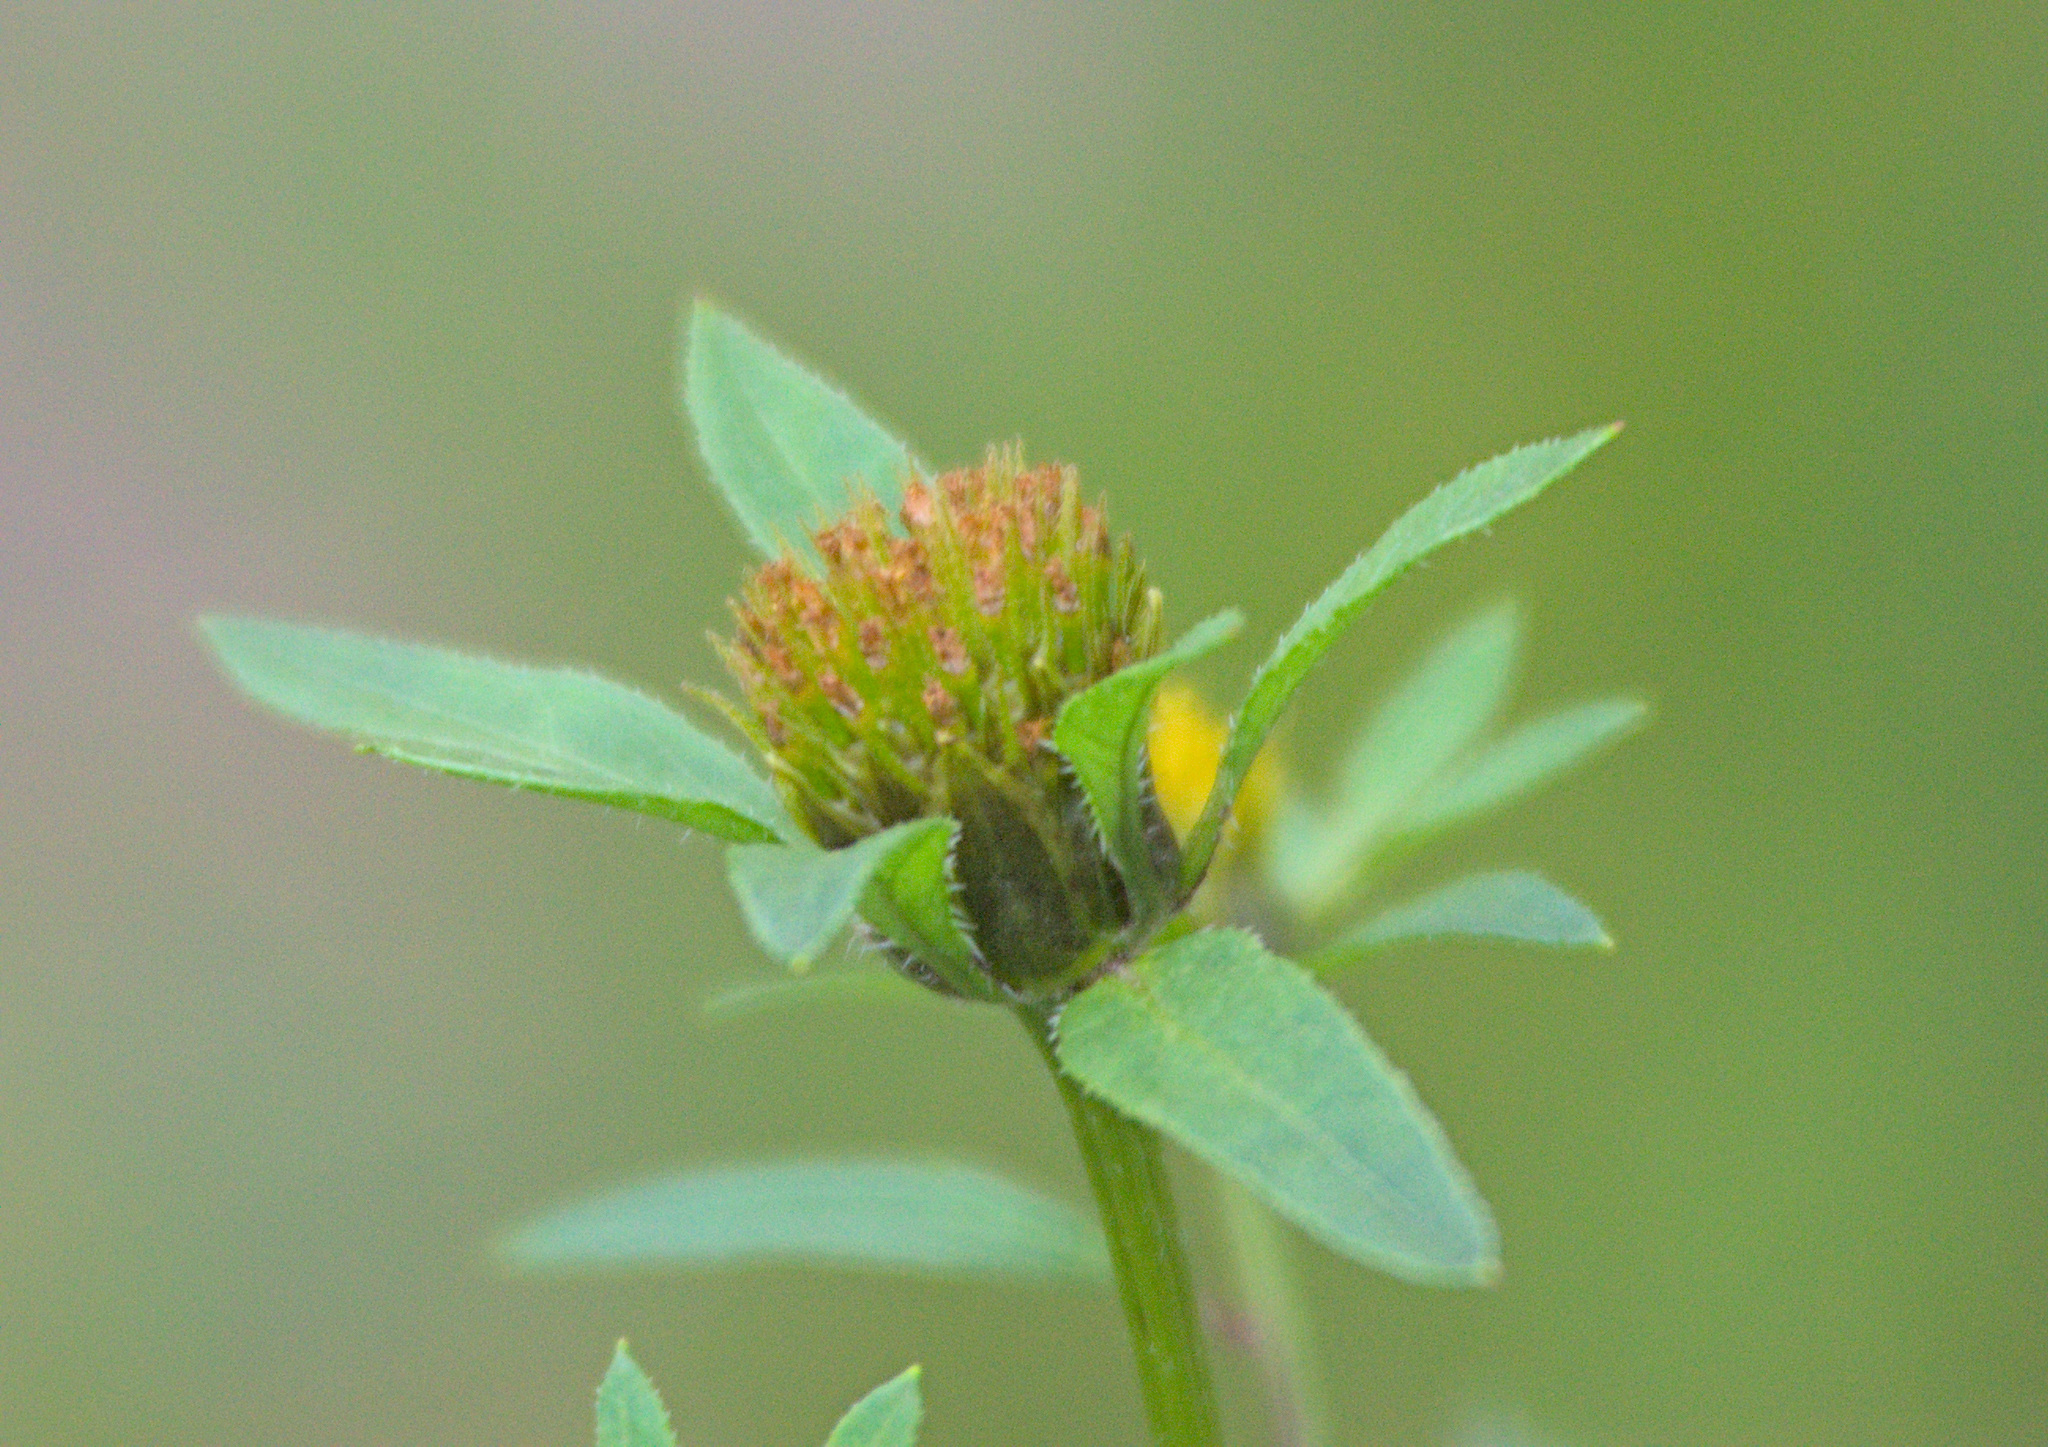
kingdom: Plantae
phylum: Tracheophyta
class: Magnoliopsida
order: Asterales
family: Asteraceae
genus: Bidens
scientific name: Bidens tripartita
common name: Trifid bur-marigold
